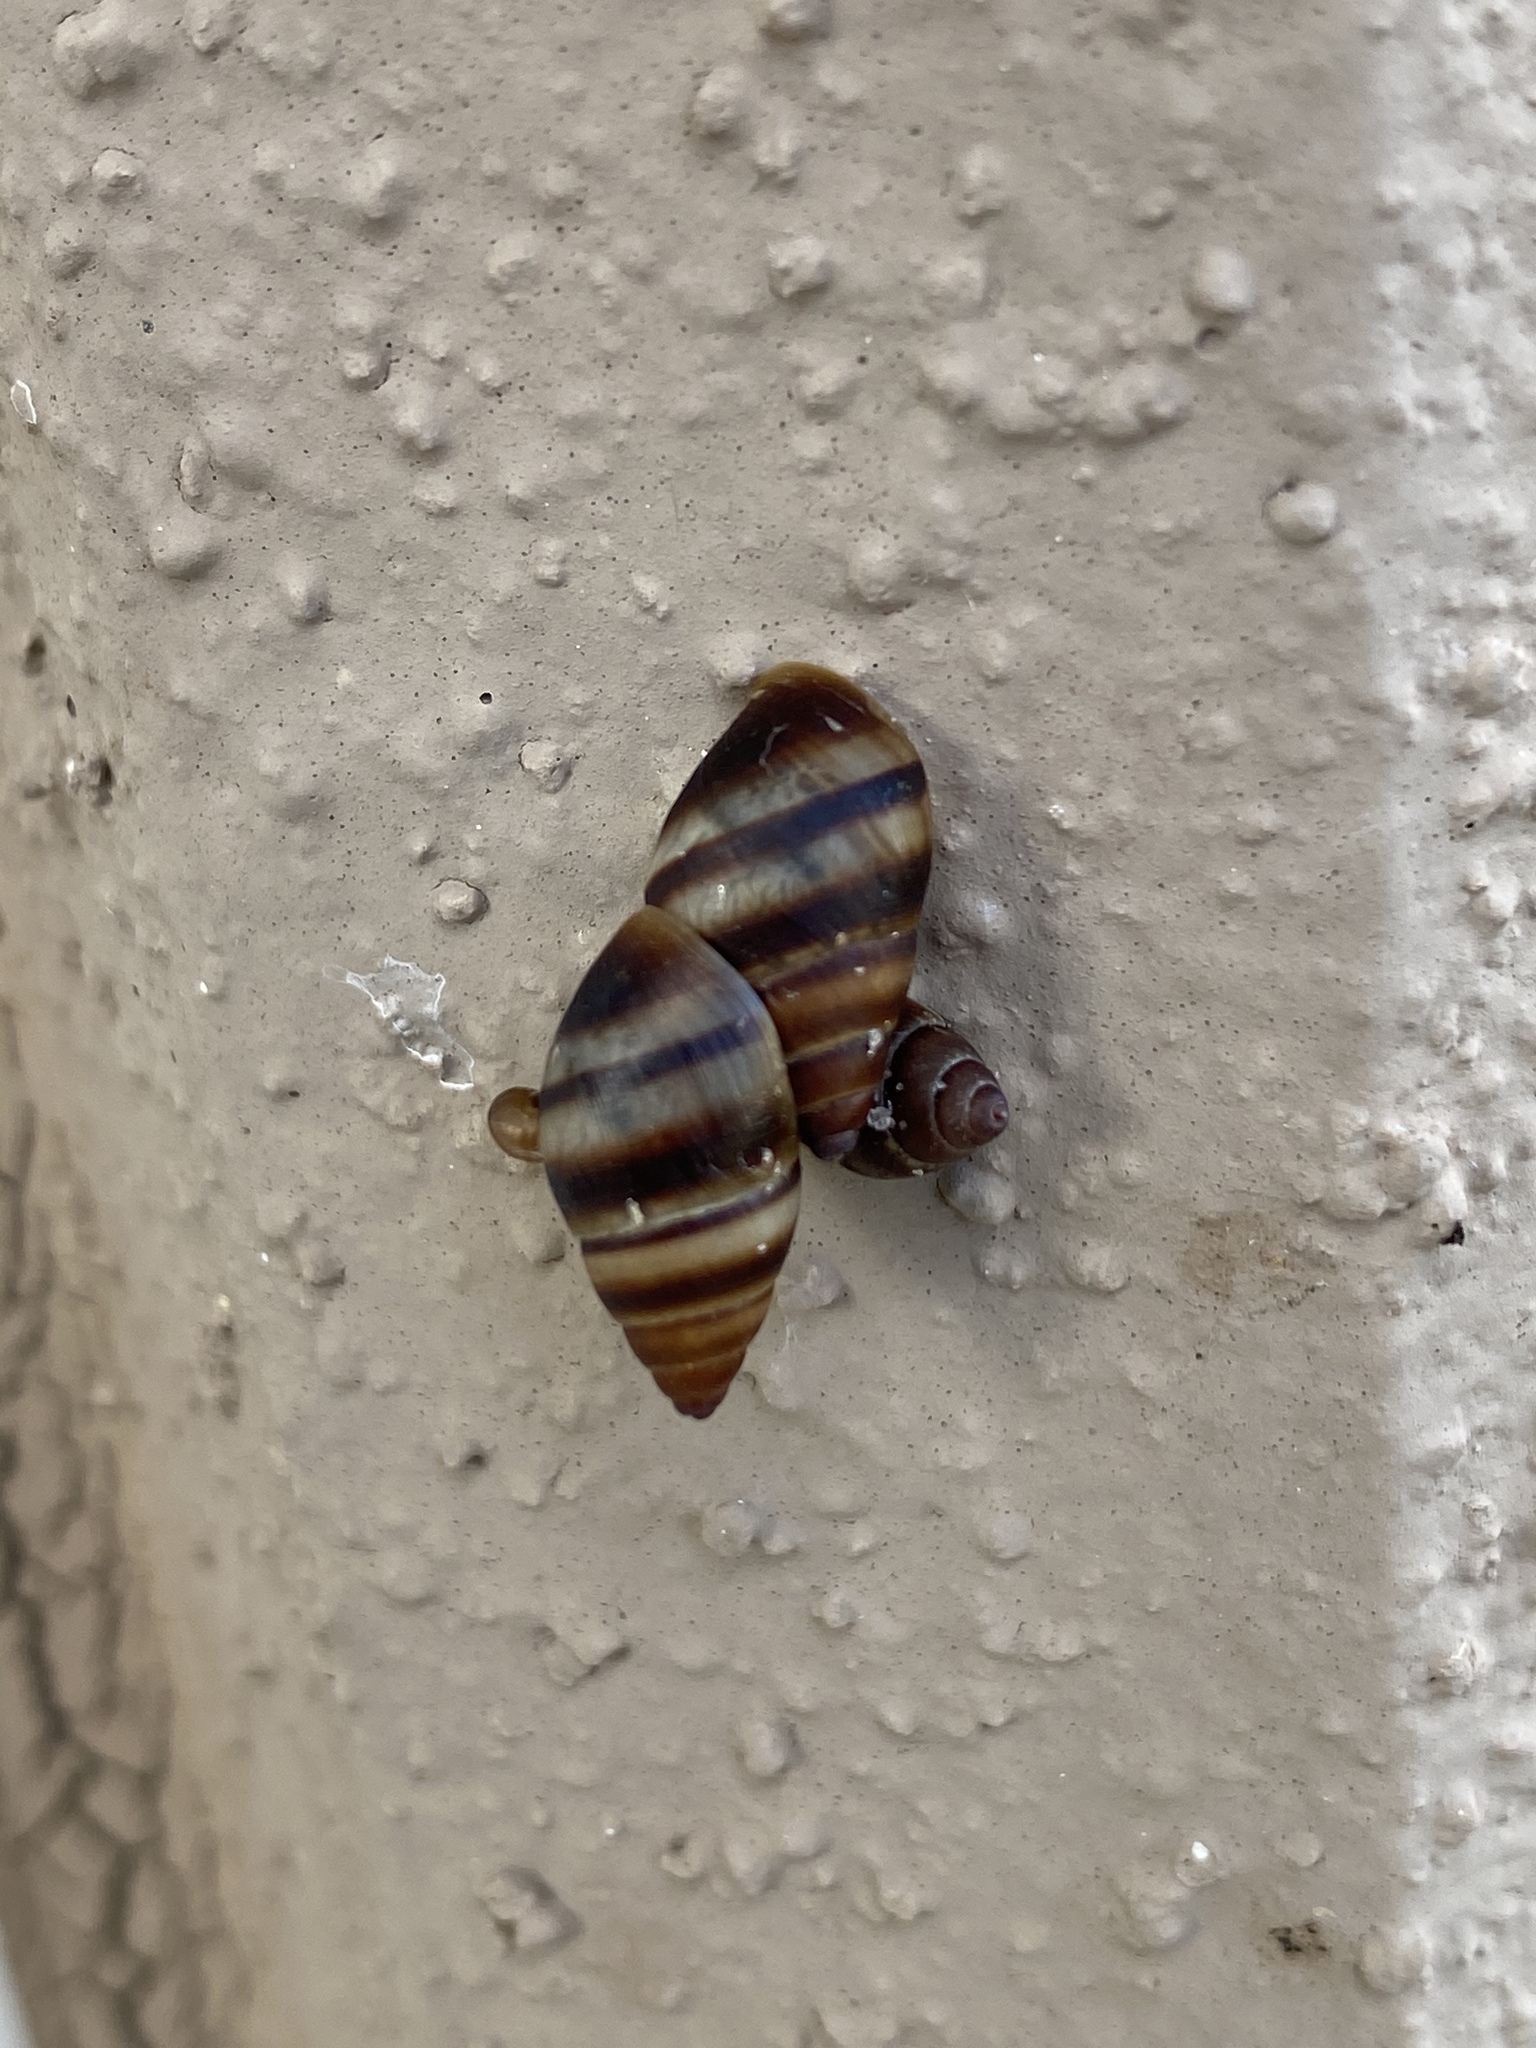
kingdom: Animalia
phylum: Mollusca
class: Gastropoda
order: Stylommatophora
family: Bulimulidae
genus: Bulimulus
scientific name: Bulimulus guadalupensis
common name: West indian bulimulus
